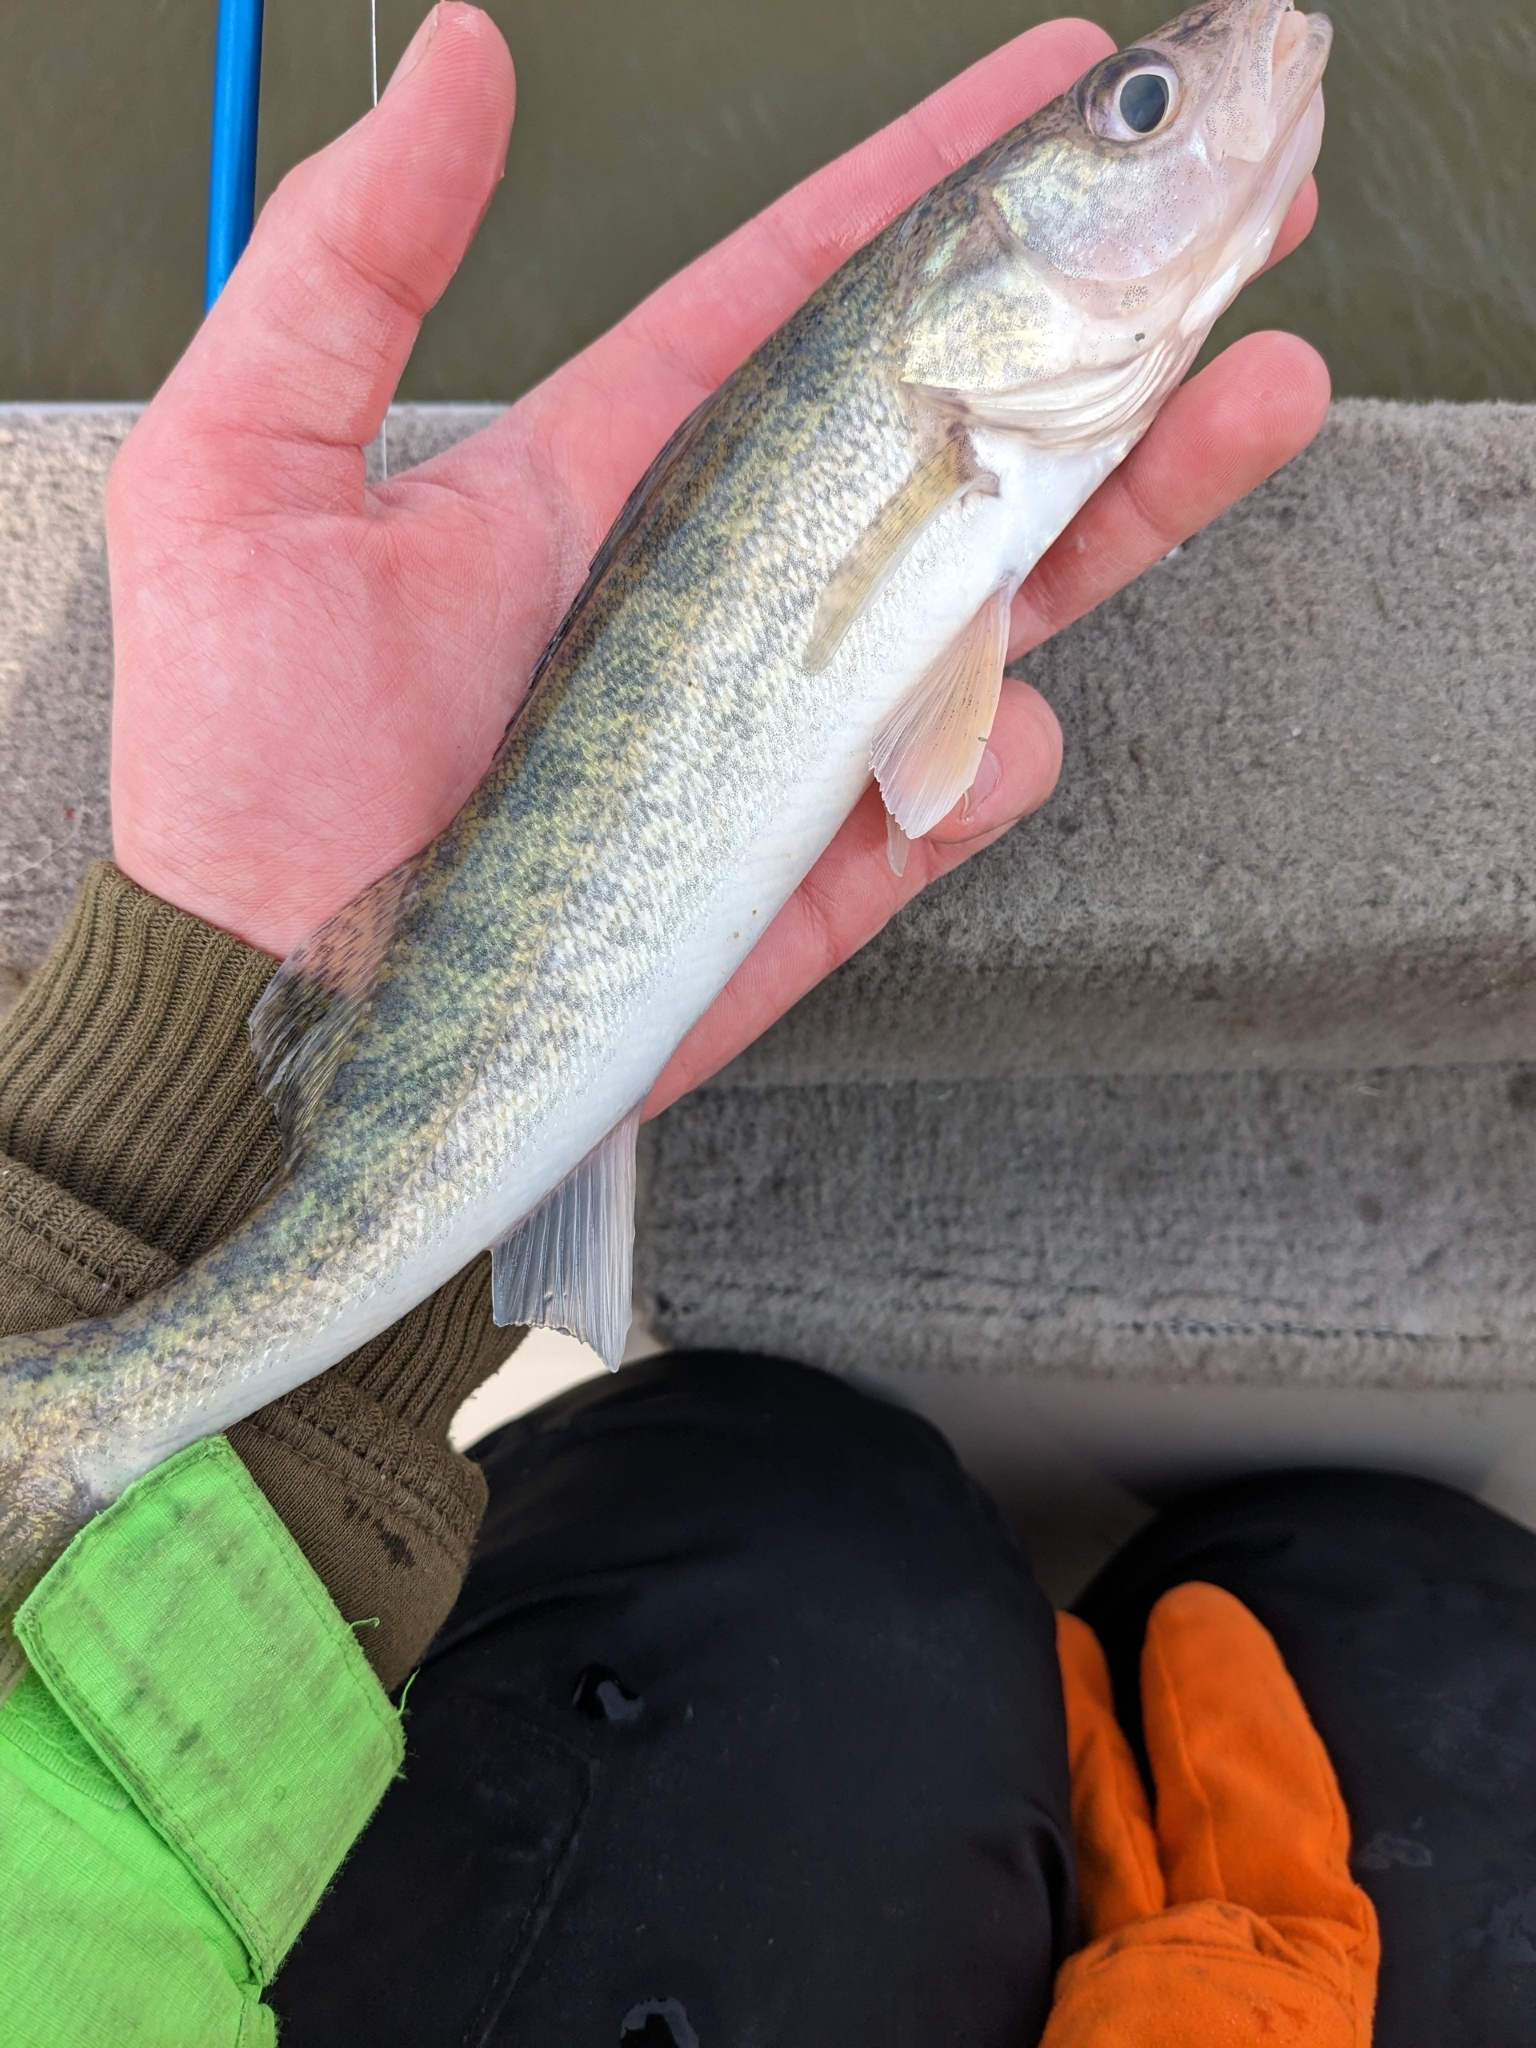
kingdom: Animalia
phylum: Chordata
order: Perciformes
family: Percidae
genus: Sander
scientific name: Sander vitreus
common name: Walleye
